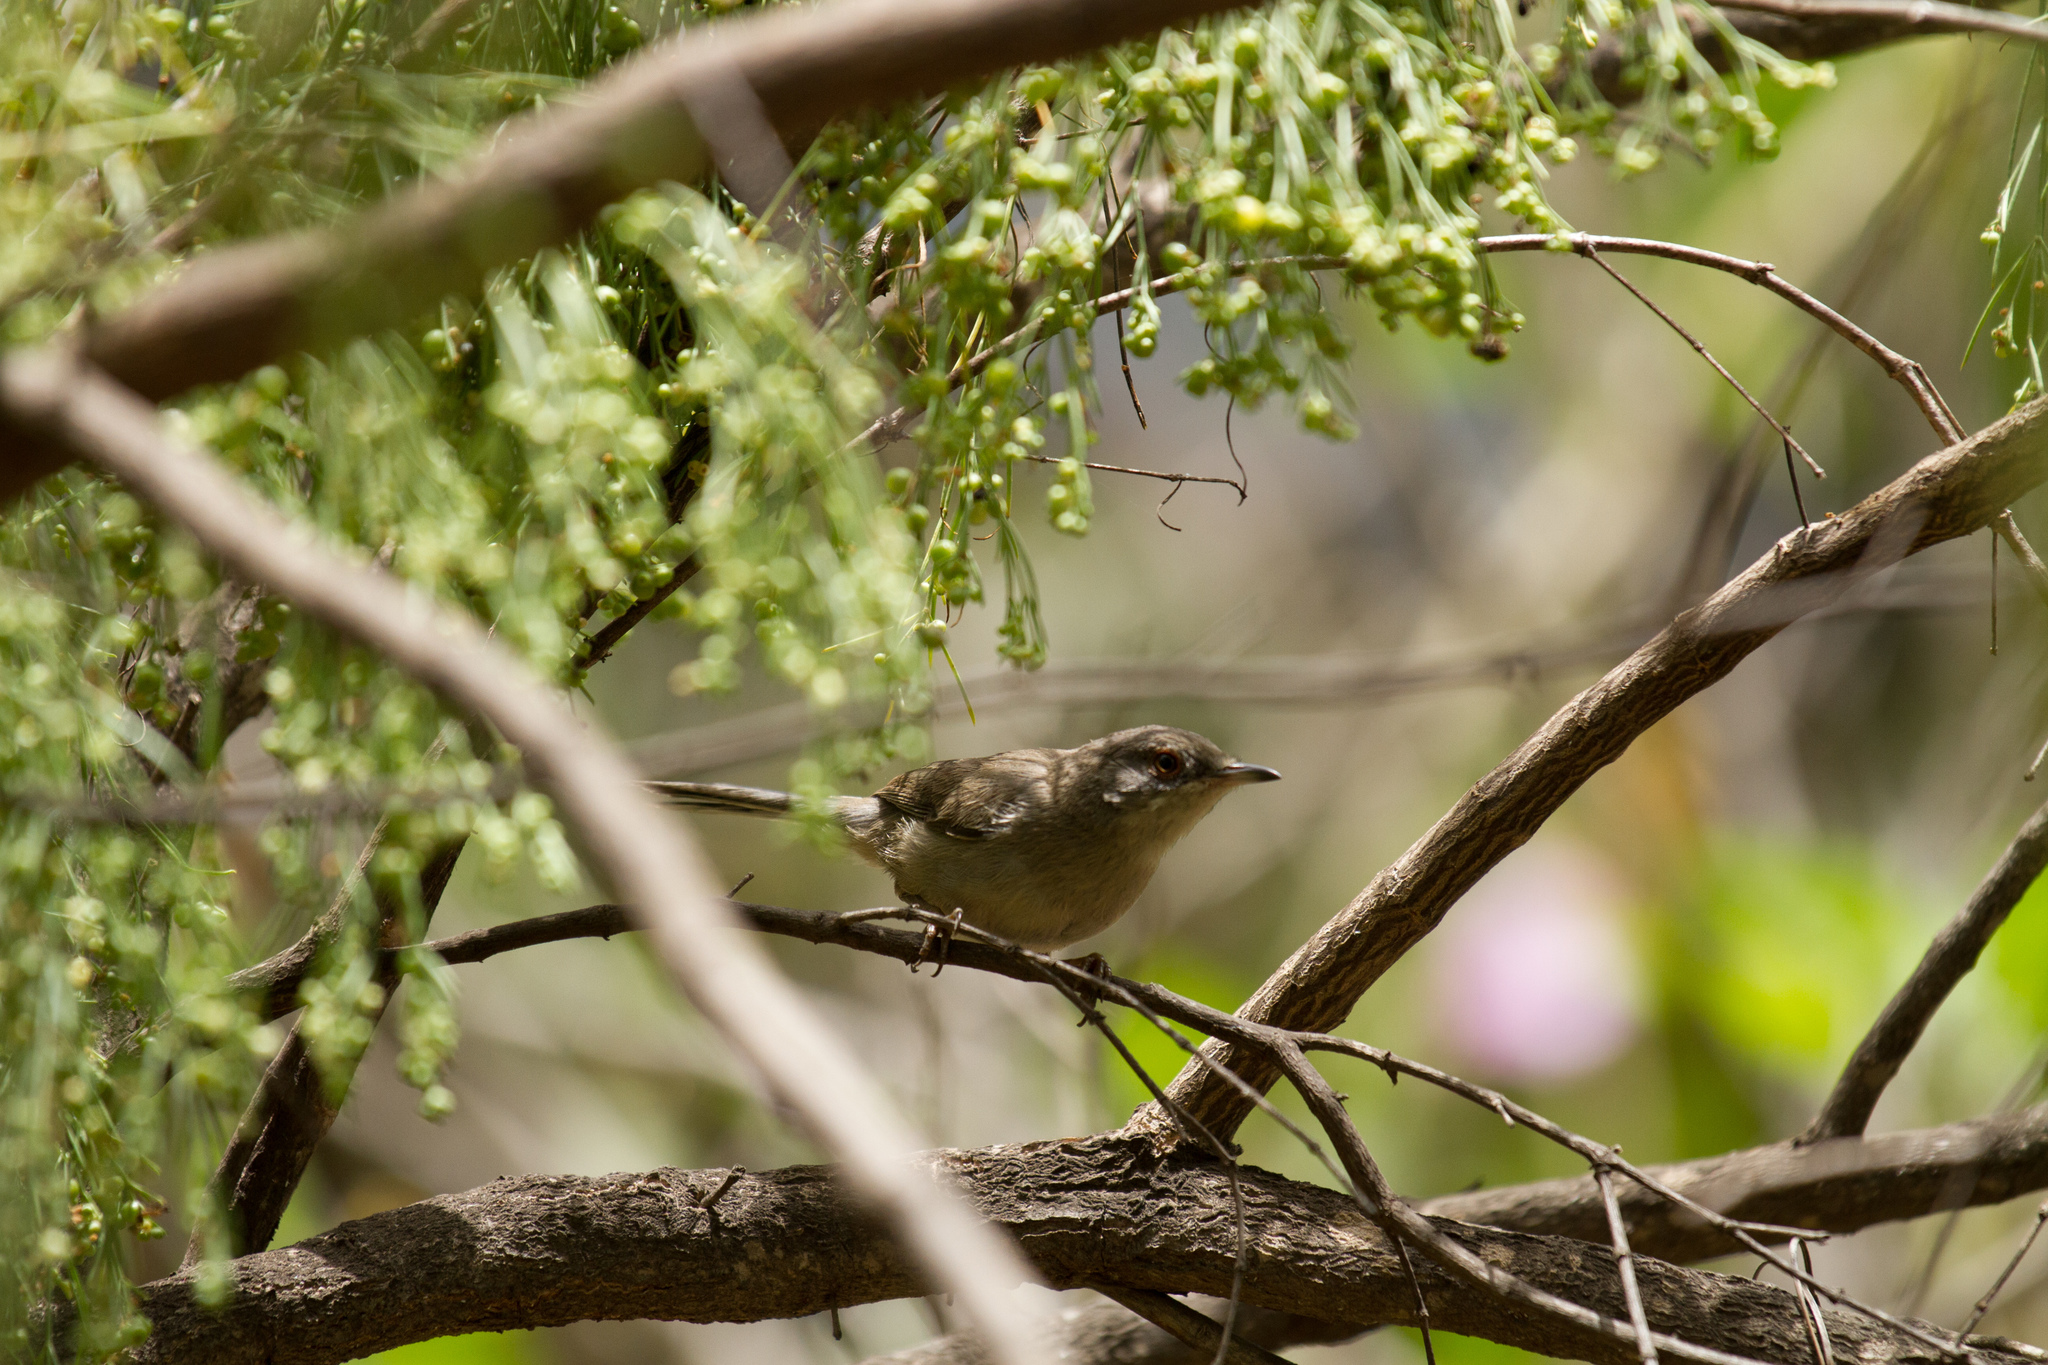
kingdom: Animalia
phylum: Chordata
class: Aves
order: Passeriformes
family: Sylviidae
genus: Curruca
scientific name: Curruca melanocephala
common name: Sardinian warbler
